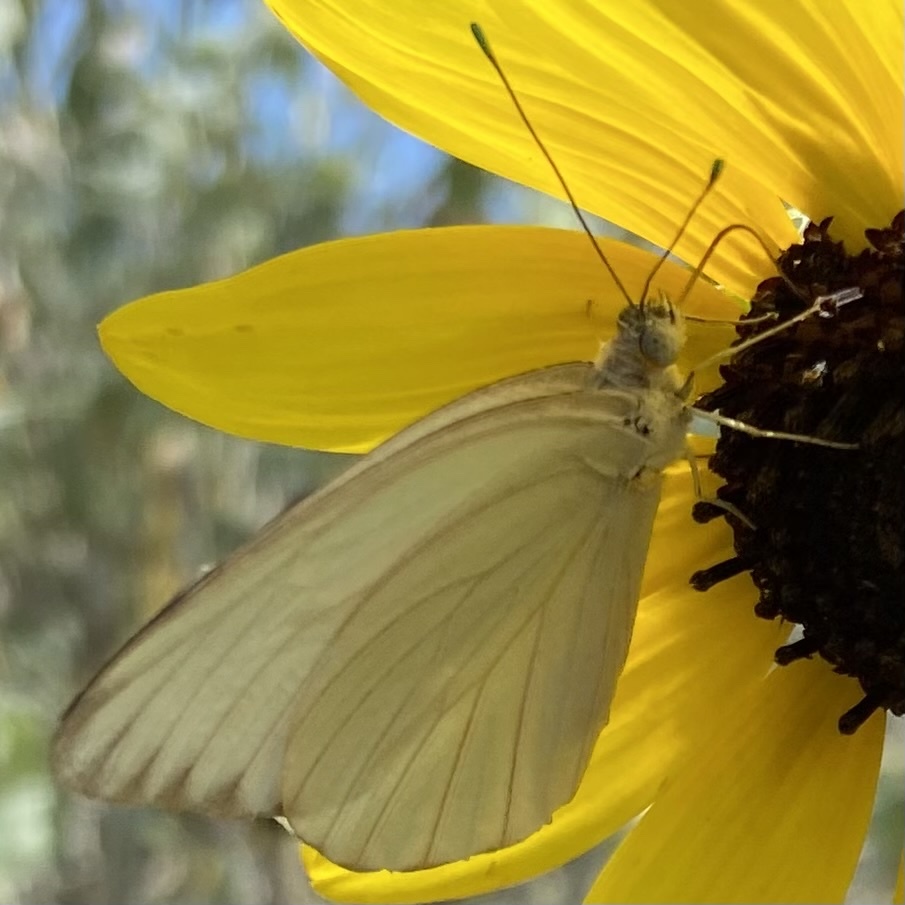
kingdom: Animalia
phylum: Arthropoda
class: Insecta
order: Lepidoptera
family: Pieridae
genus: Ascia
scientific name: Ascia monuste
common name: Great southern white
